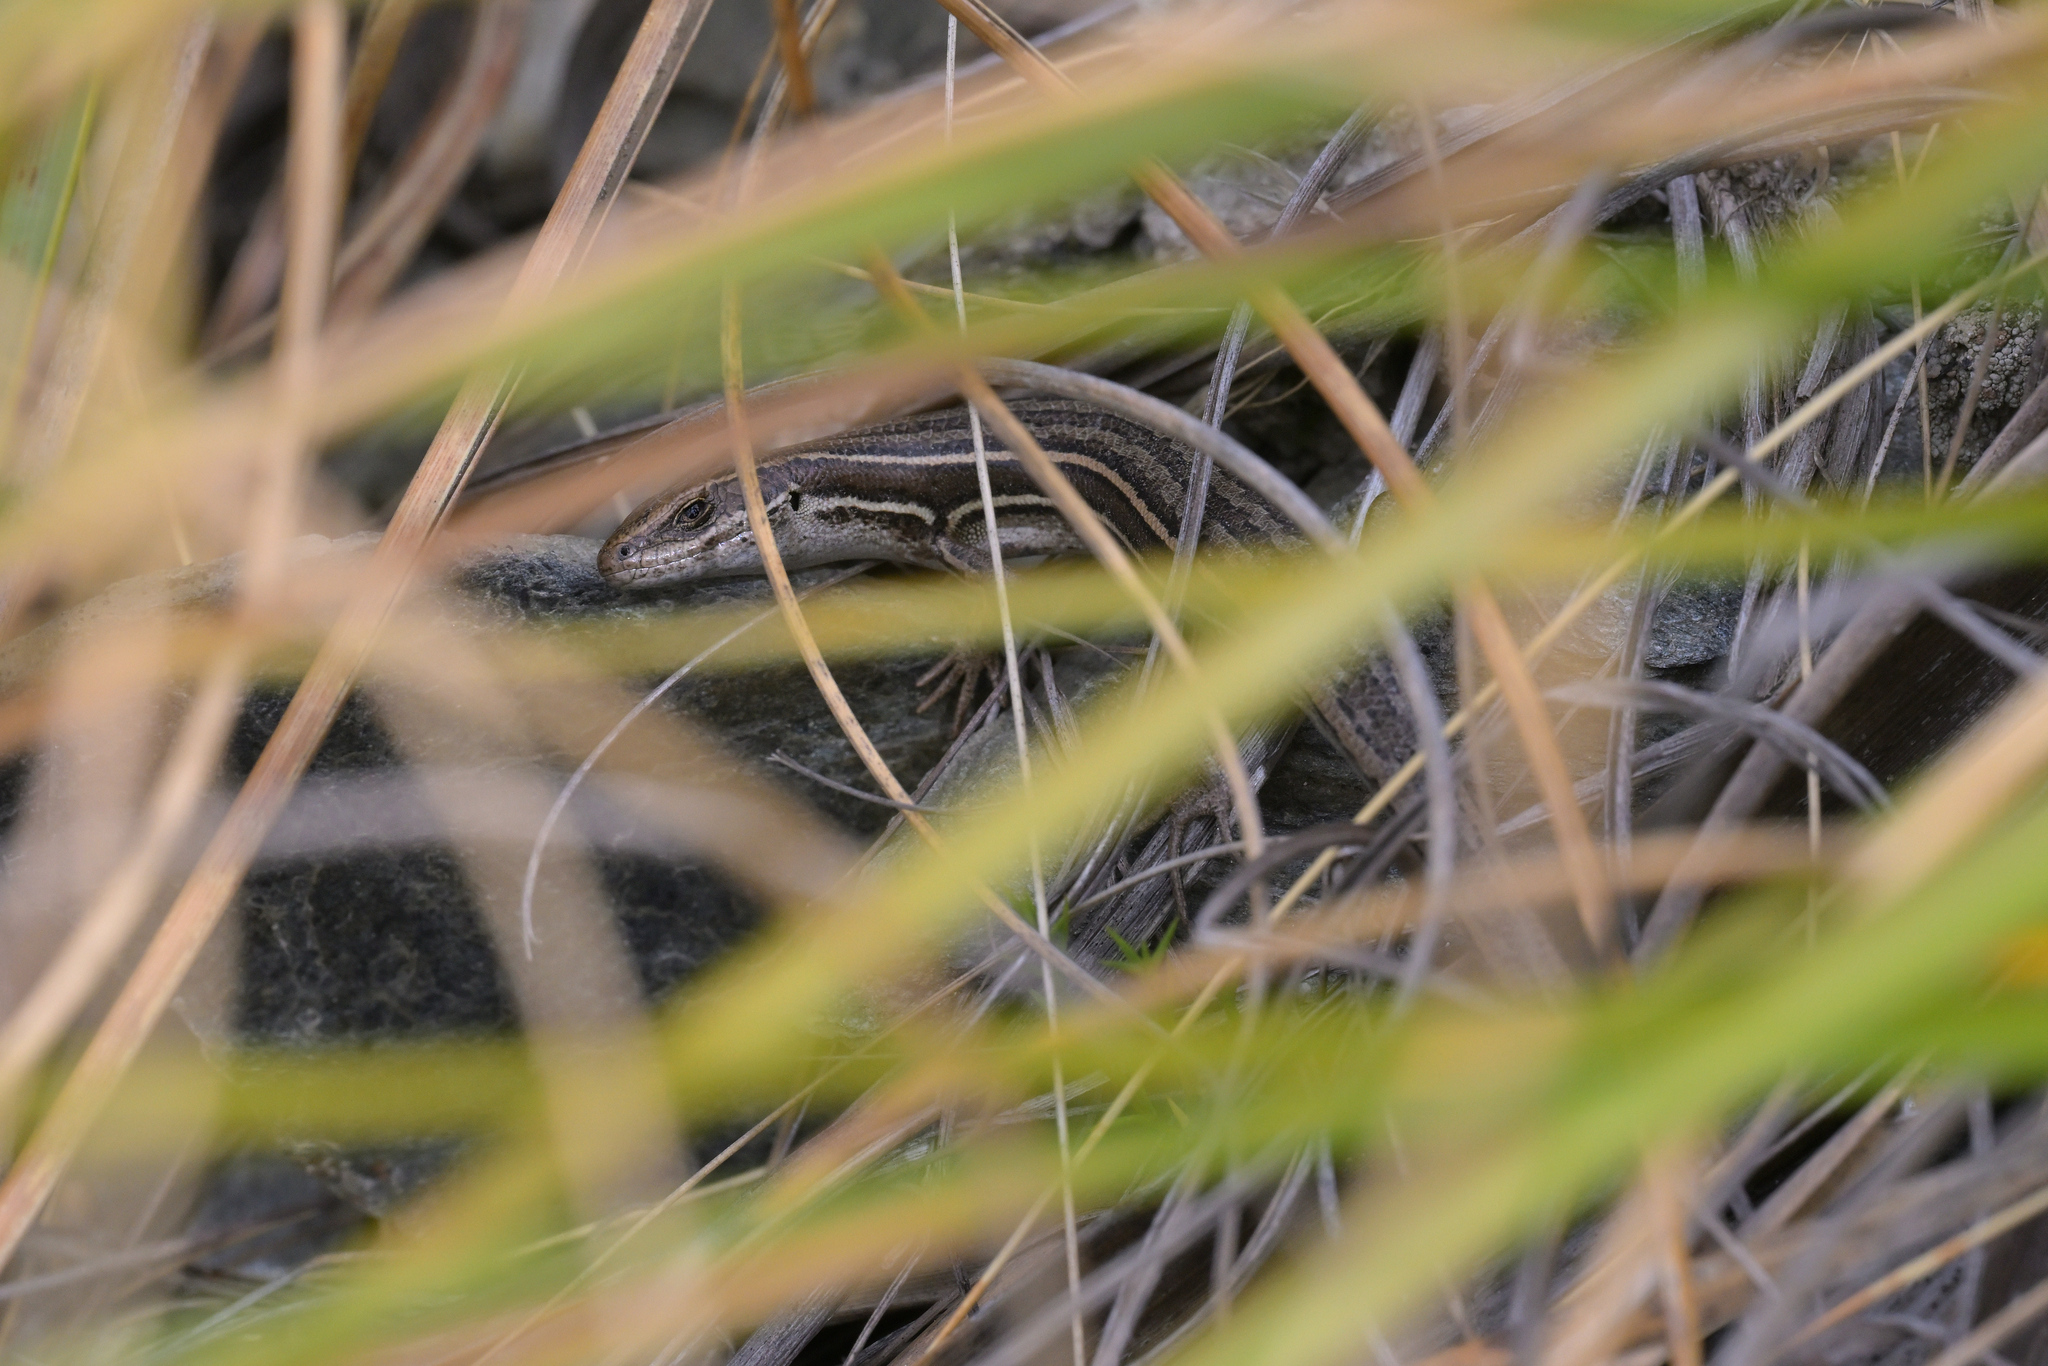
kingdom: Animalia
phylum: Chordata
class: Squamata
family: Scincidae
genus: Oligosoma
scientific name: Oligosoma maccanni
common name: Mccann’s skink
